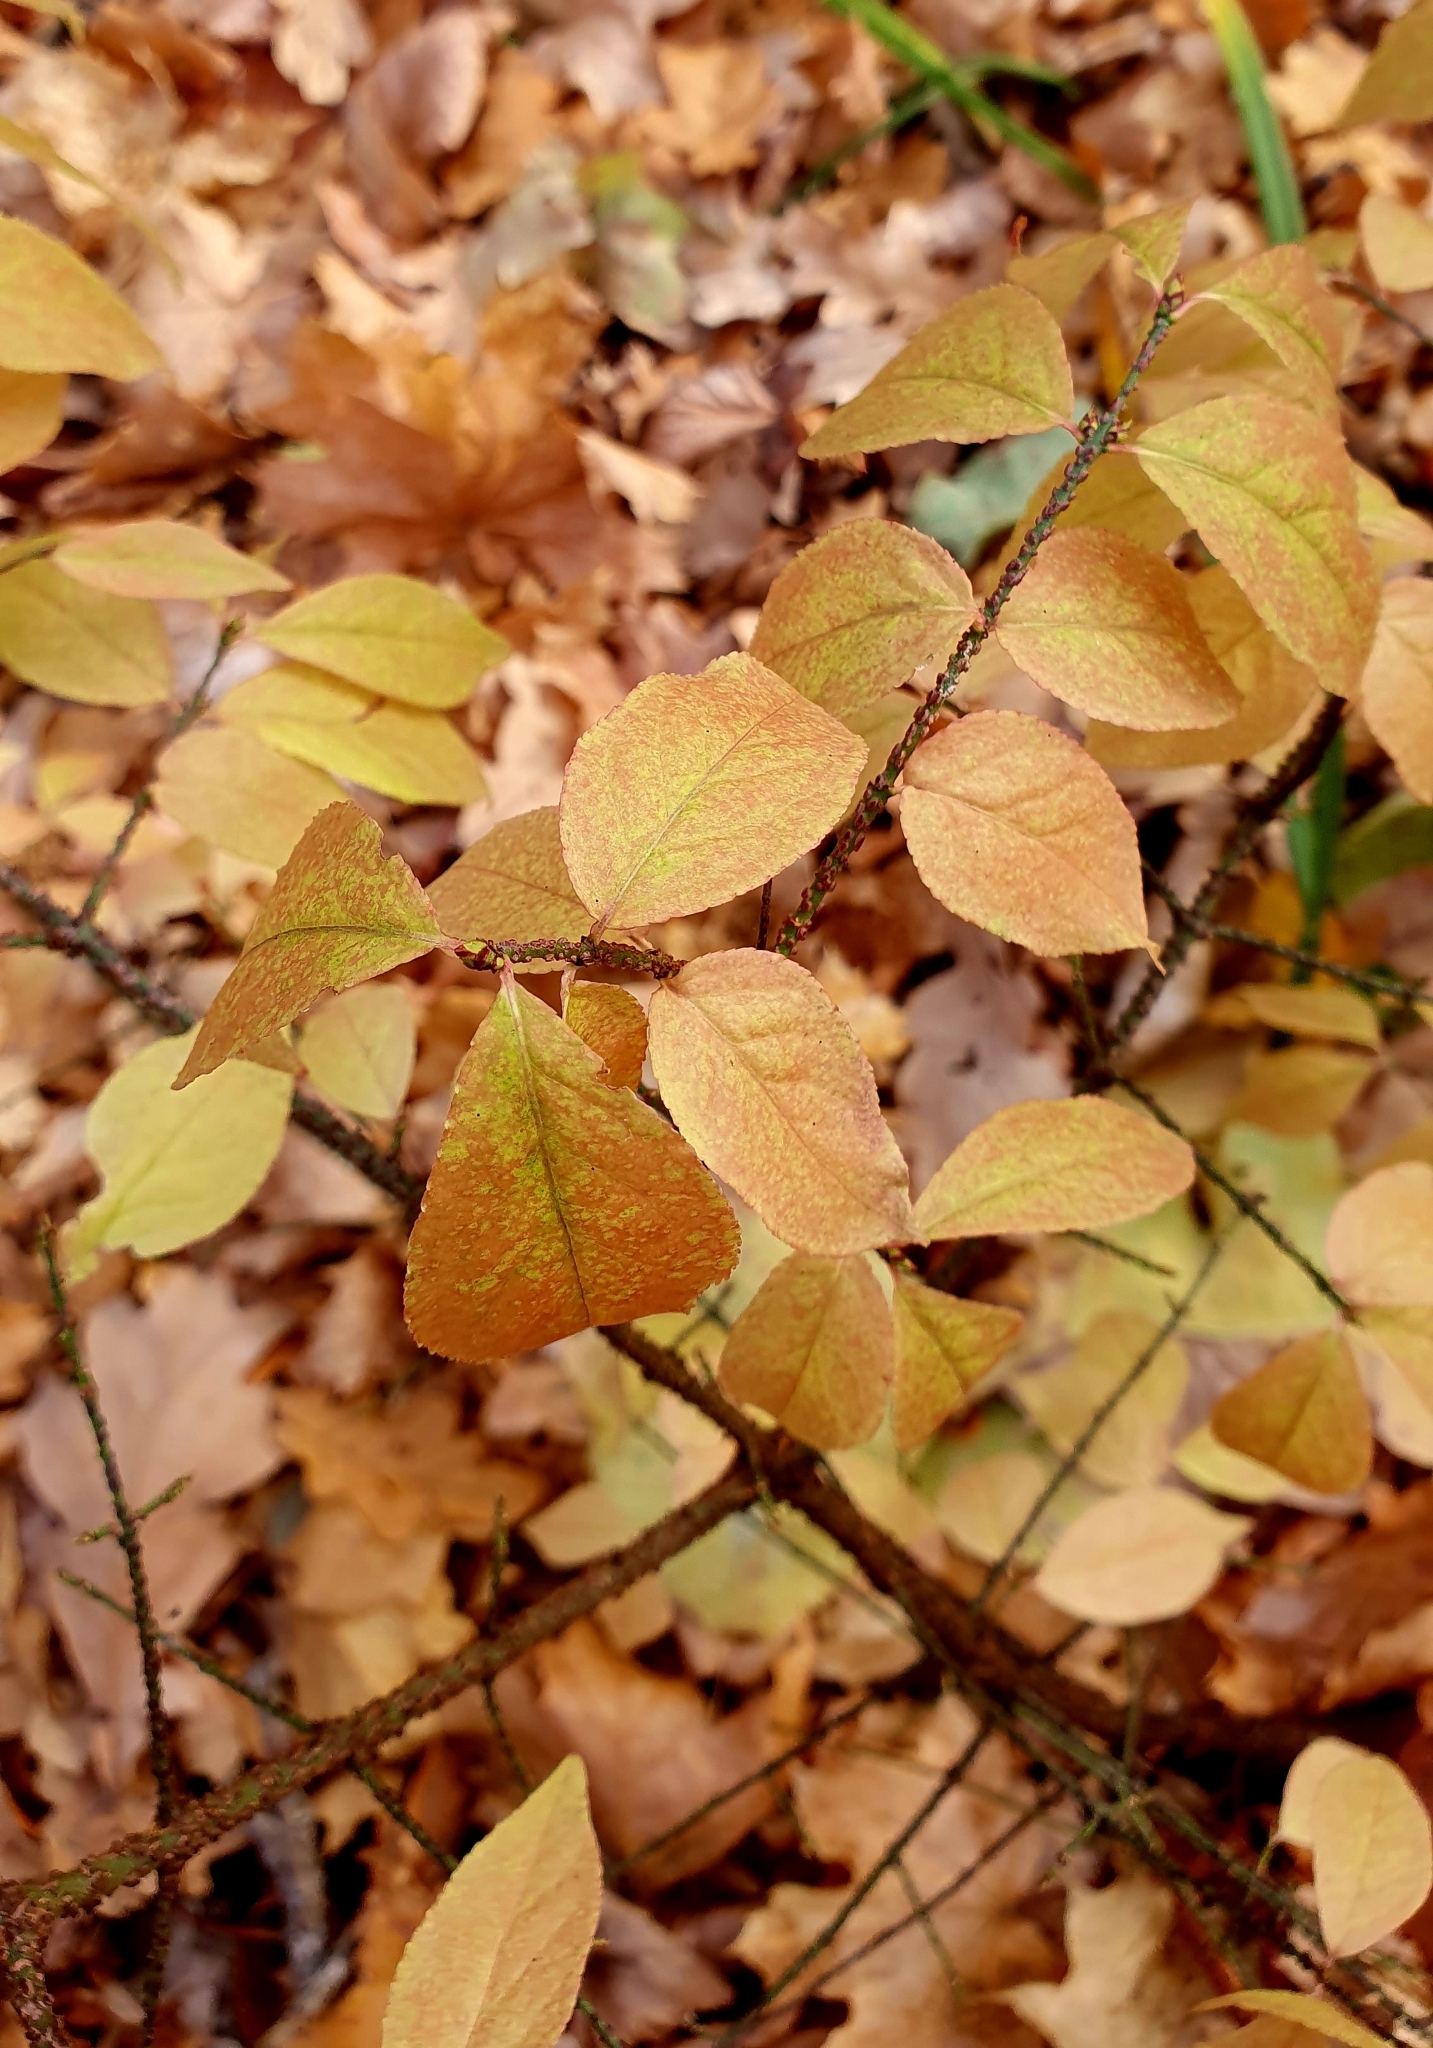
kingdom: Plantae
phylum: Tracheophyta
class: Magnoliopsida
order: Celastrales
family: Celastraceae
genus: Euonymus
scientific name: Euonymus verrucosus
